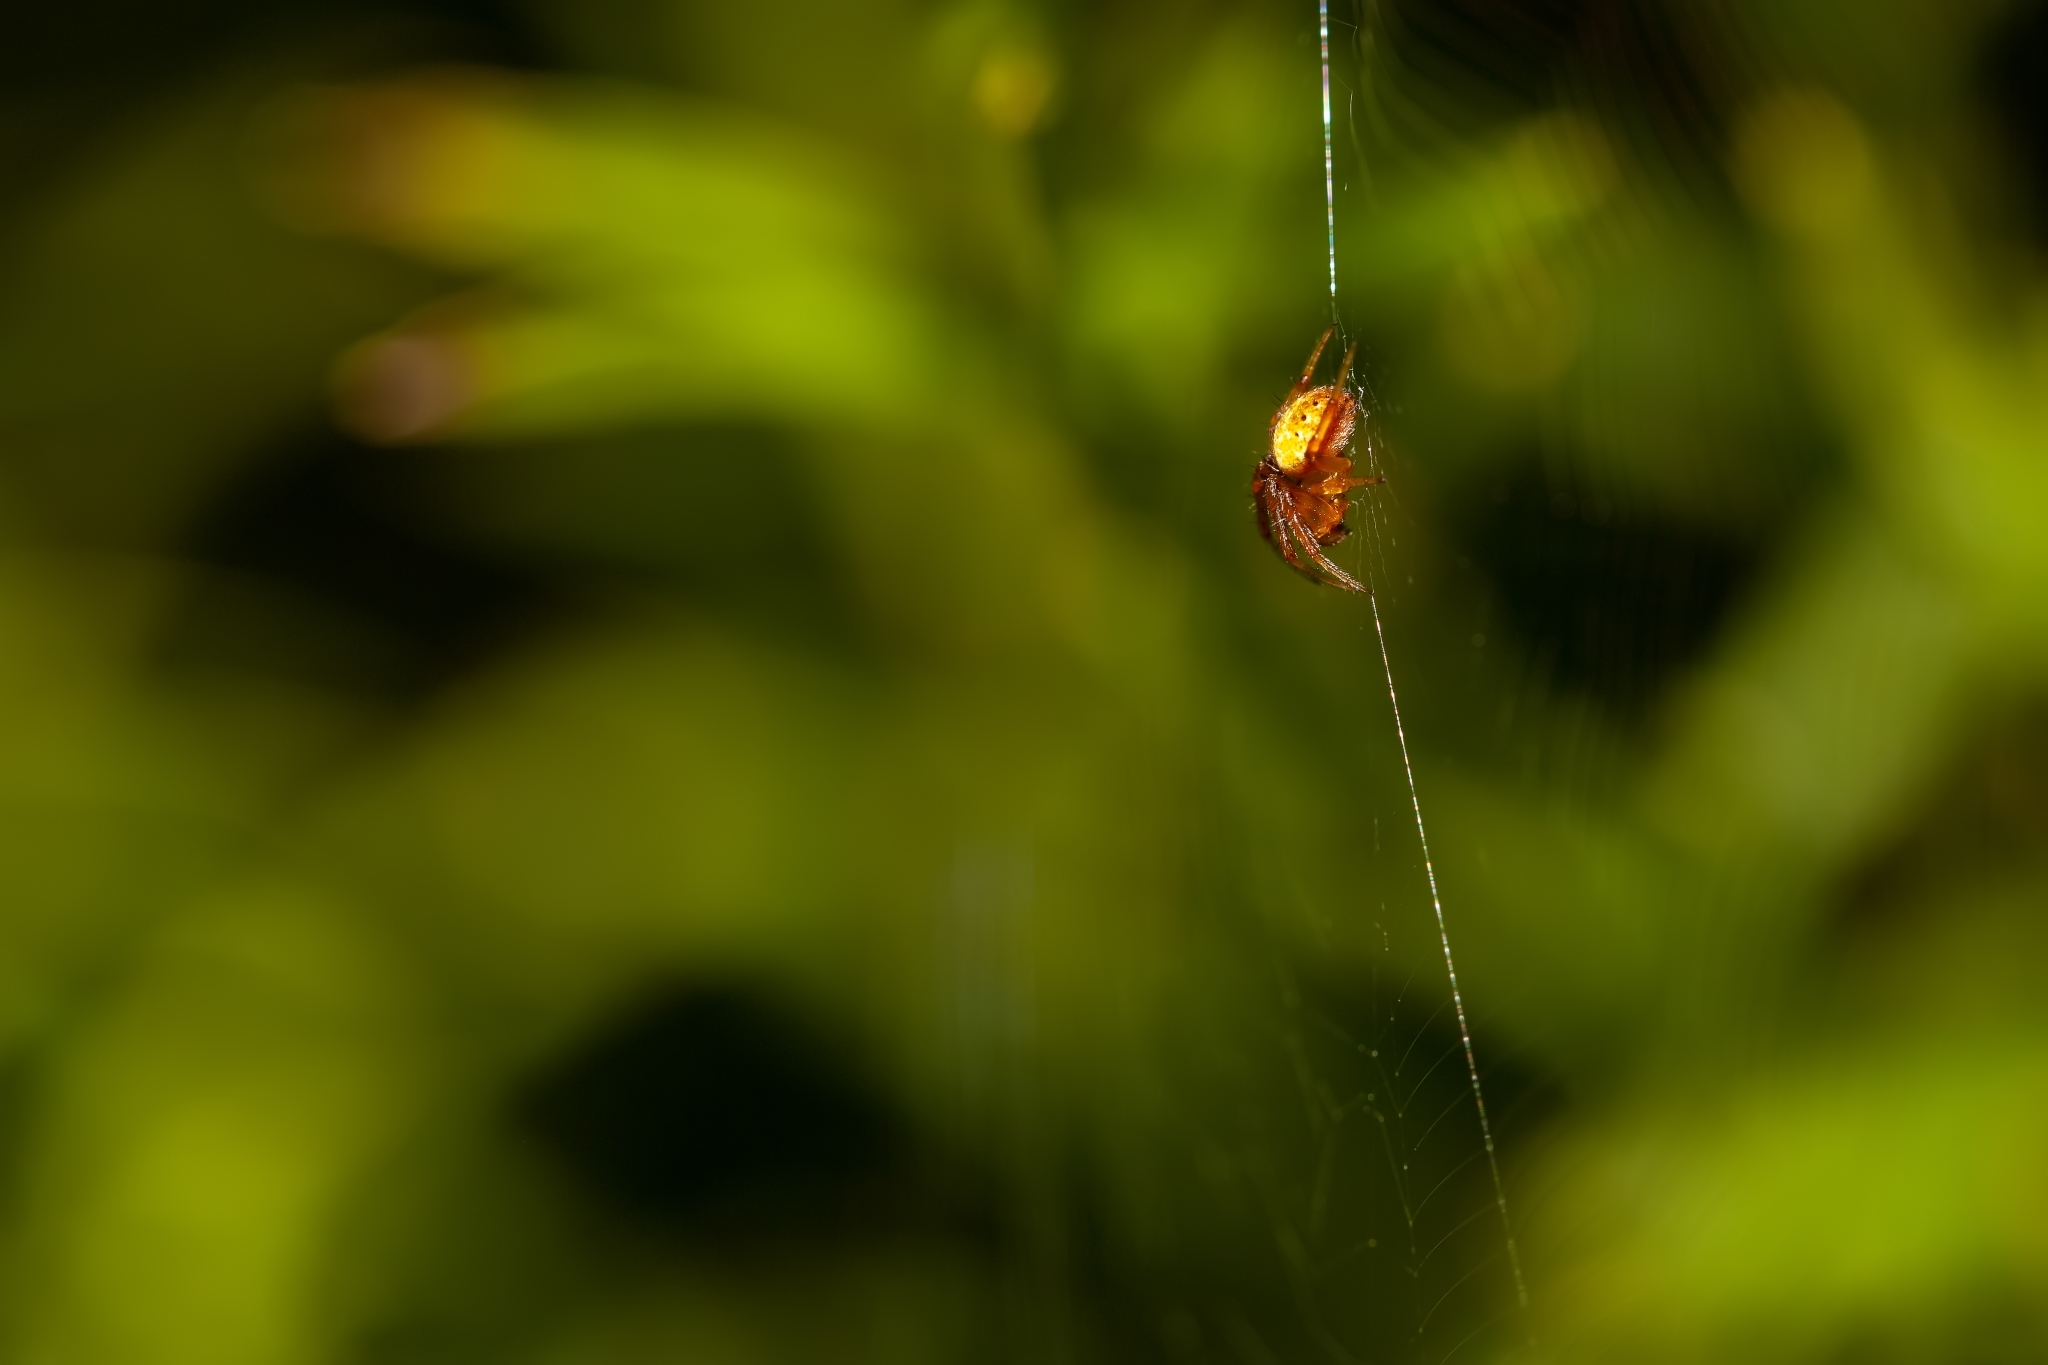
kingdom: Animalia
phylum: Arthropoda
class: Arachnida
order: Araneae
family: Araneidae
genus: Neoscona
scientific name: Neoscona arabesca
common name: Orb weavers
